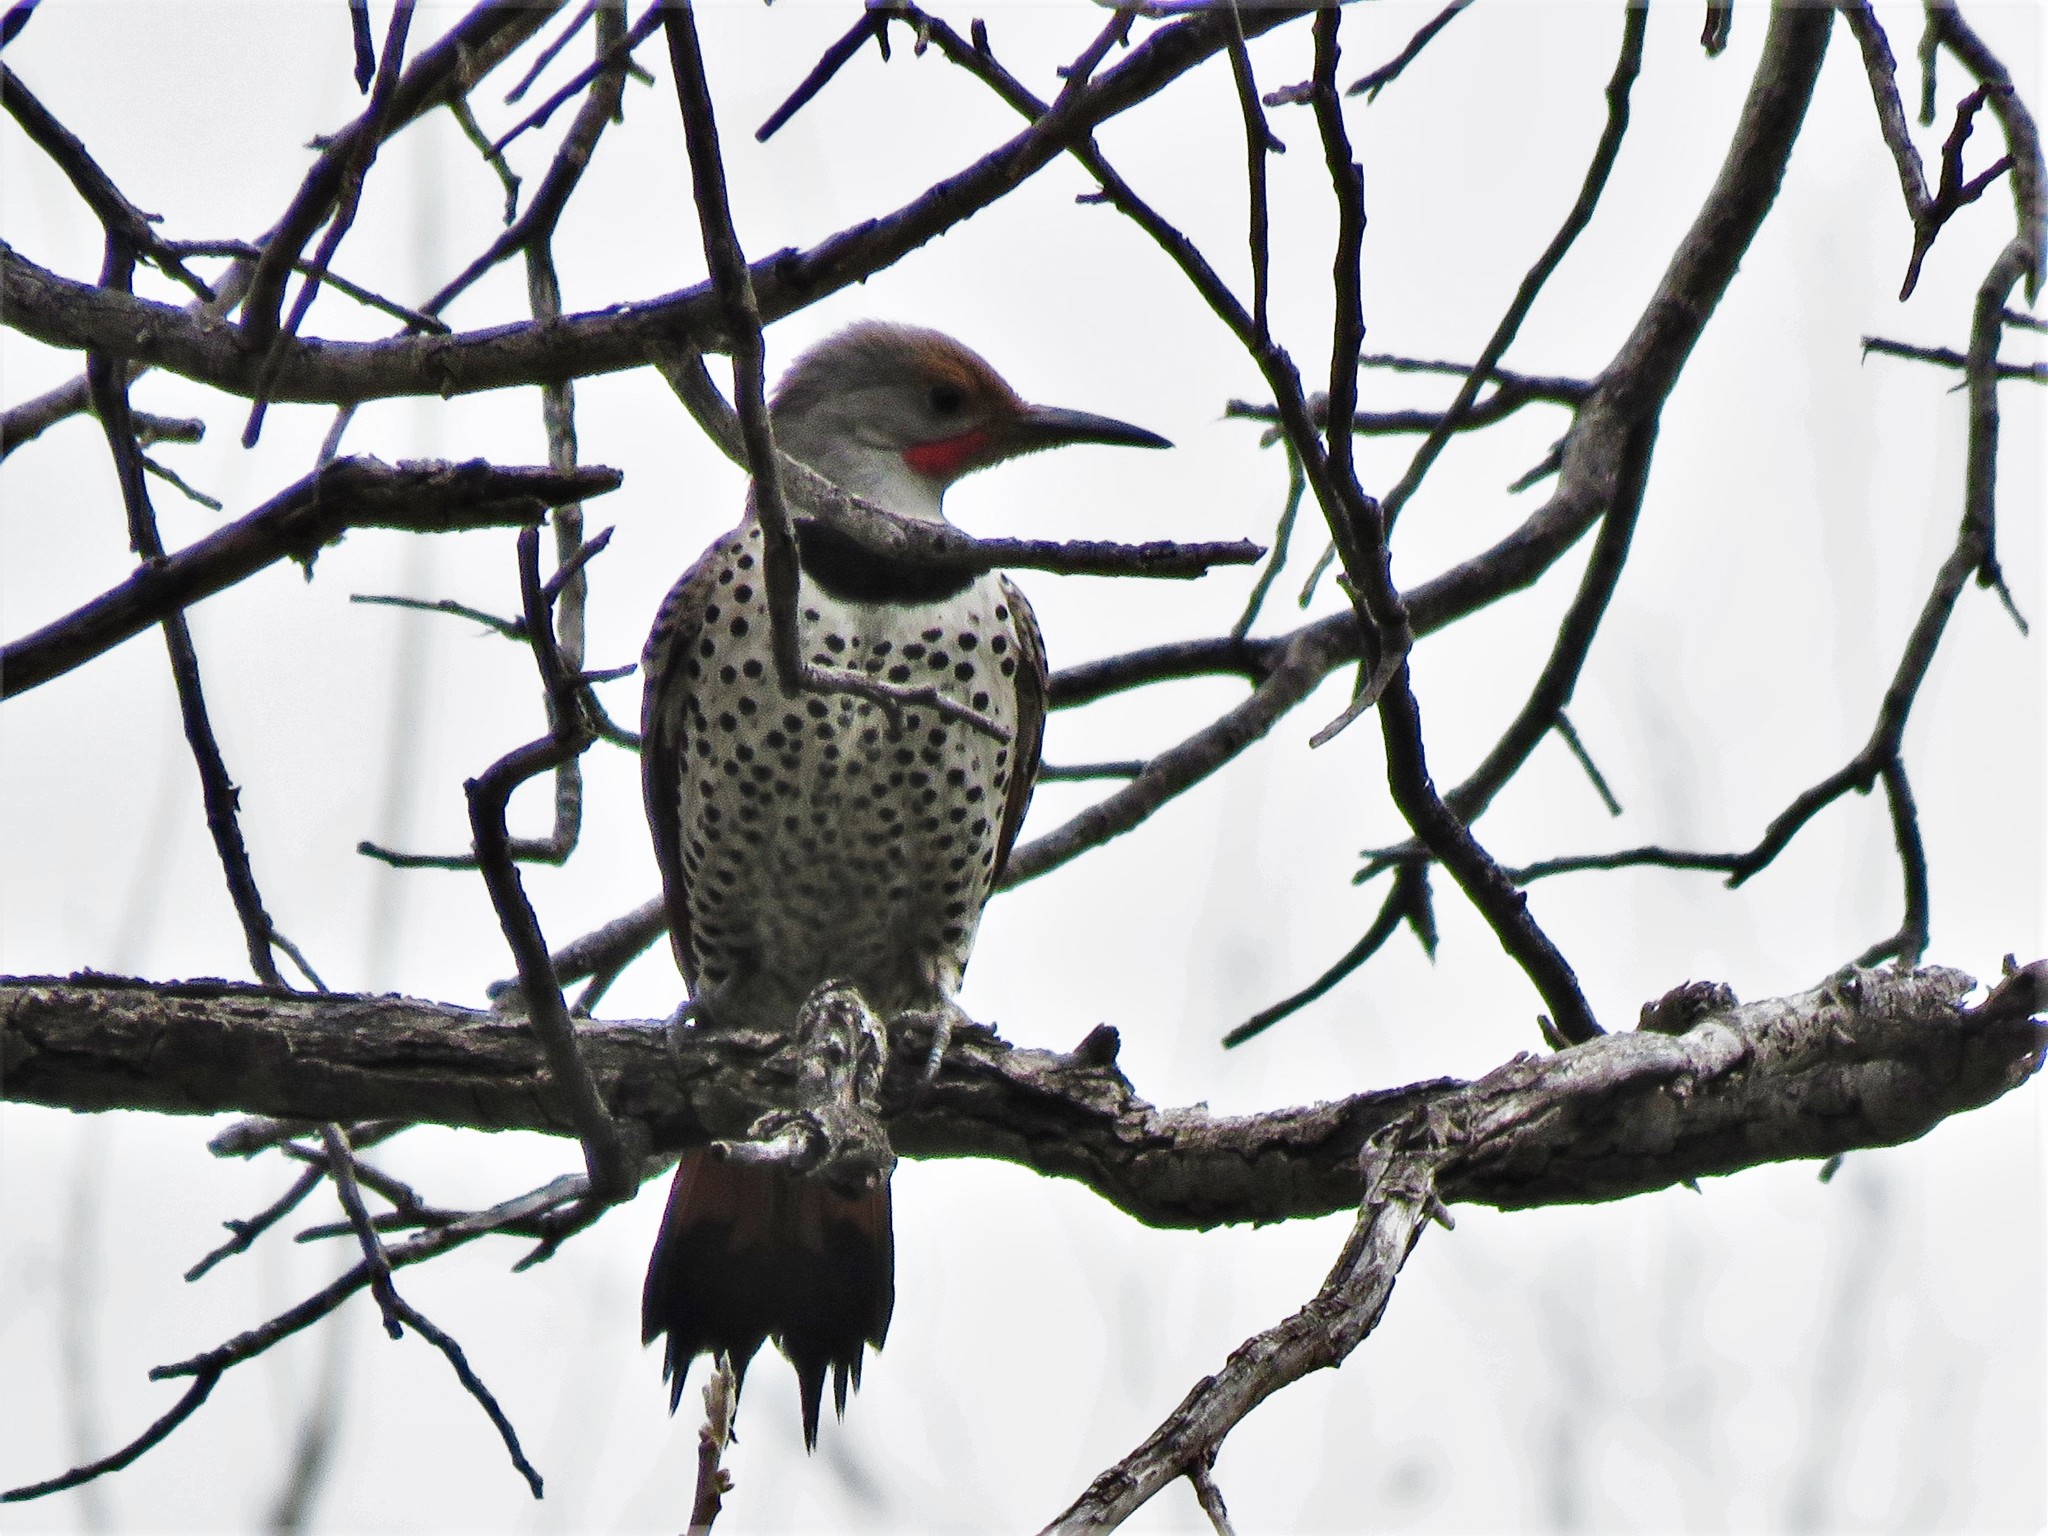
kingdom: Animalia
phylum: Chordata
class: Aves
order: Piciformes
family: Picidae
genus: Colaptes
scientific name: Colaptes auratus
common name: Northern flicker
